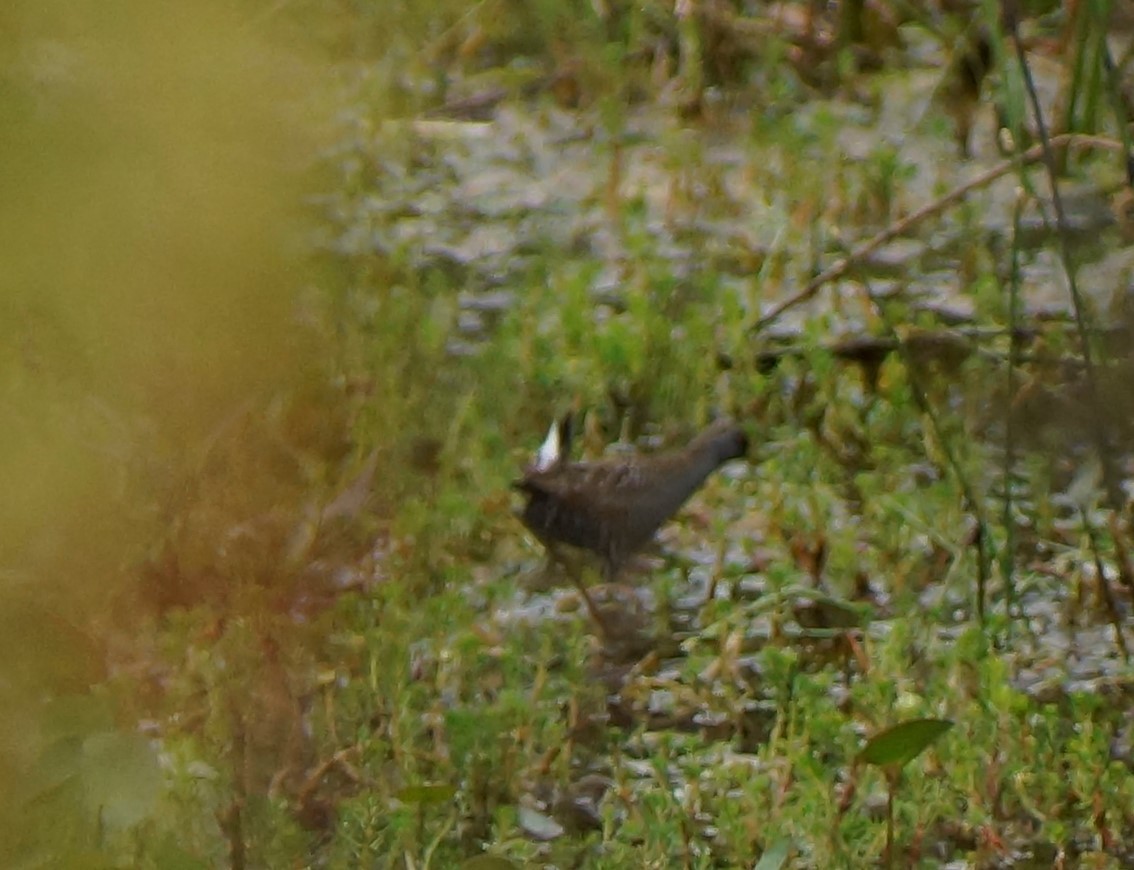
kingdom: Animalia
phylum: Chordata
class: Aves
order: Gruiformes
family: Rallidae
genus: Porzana
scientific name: Porzana fluminea
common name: Australian crake
